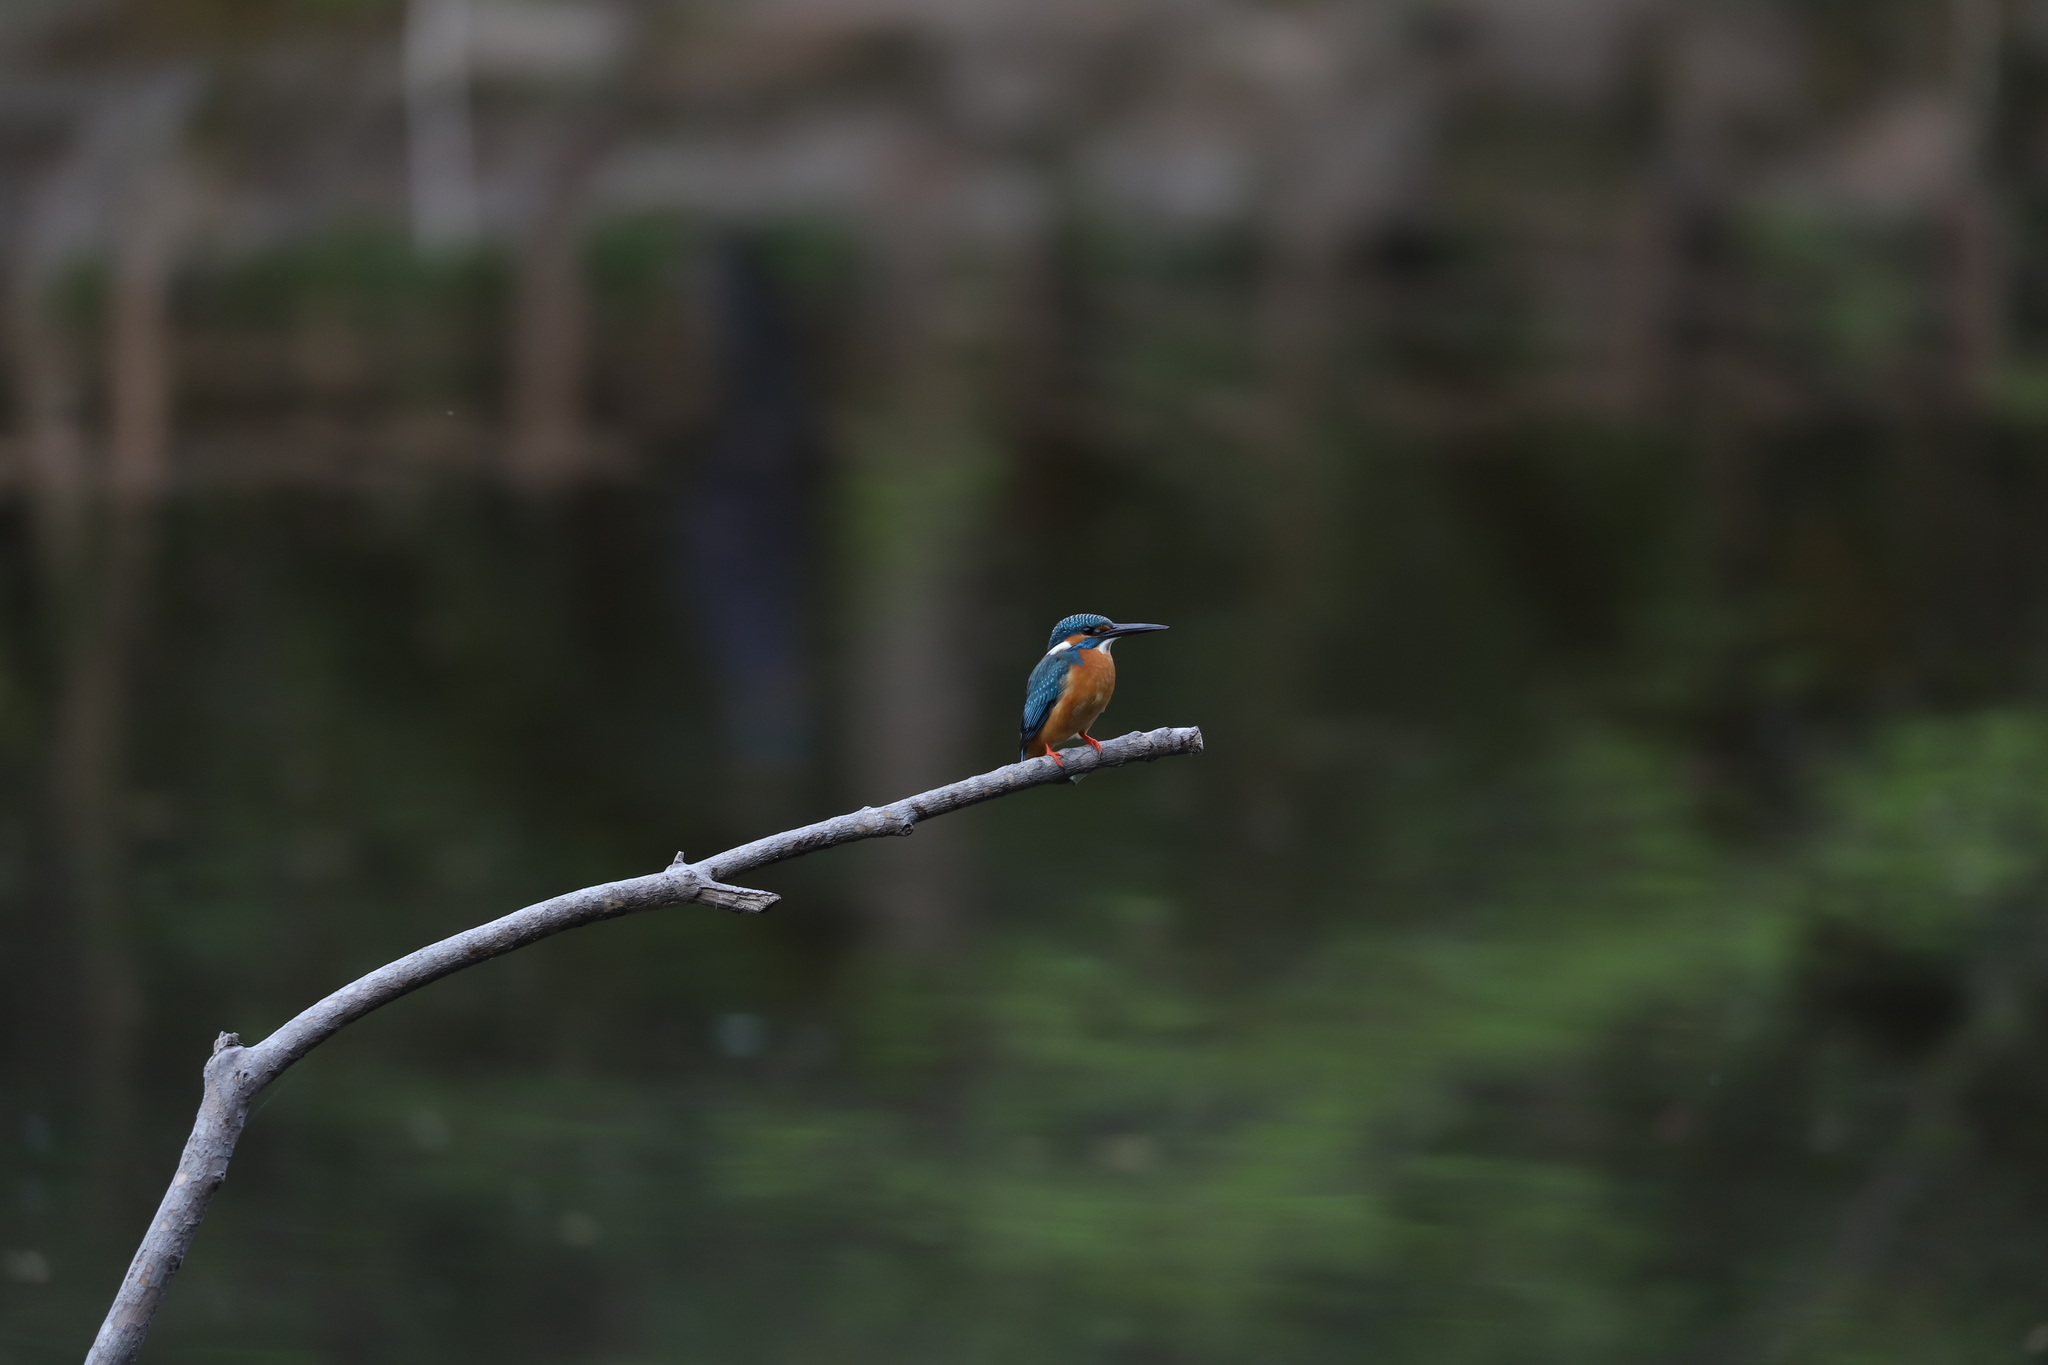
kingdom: Animalia
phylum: Chordata
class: Aves
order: Coraciiformes
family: Alcedinidae
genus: Alcedo
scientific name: Alcedo atthis
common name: Common kingfisher
